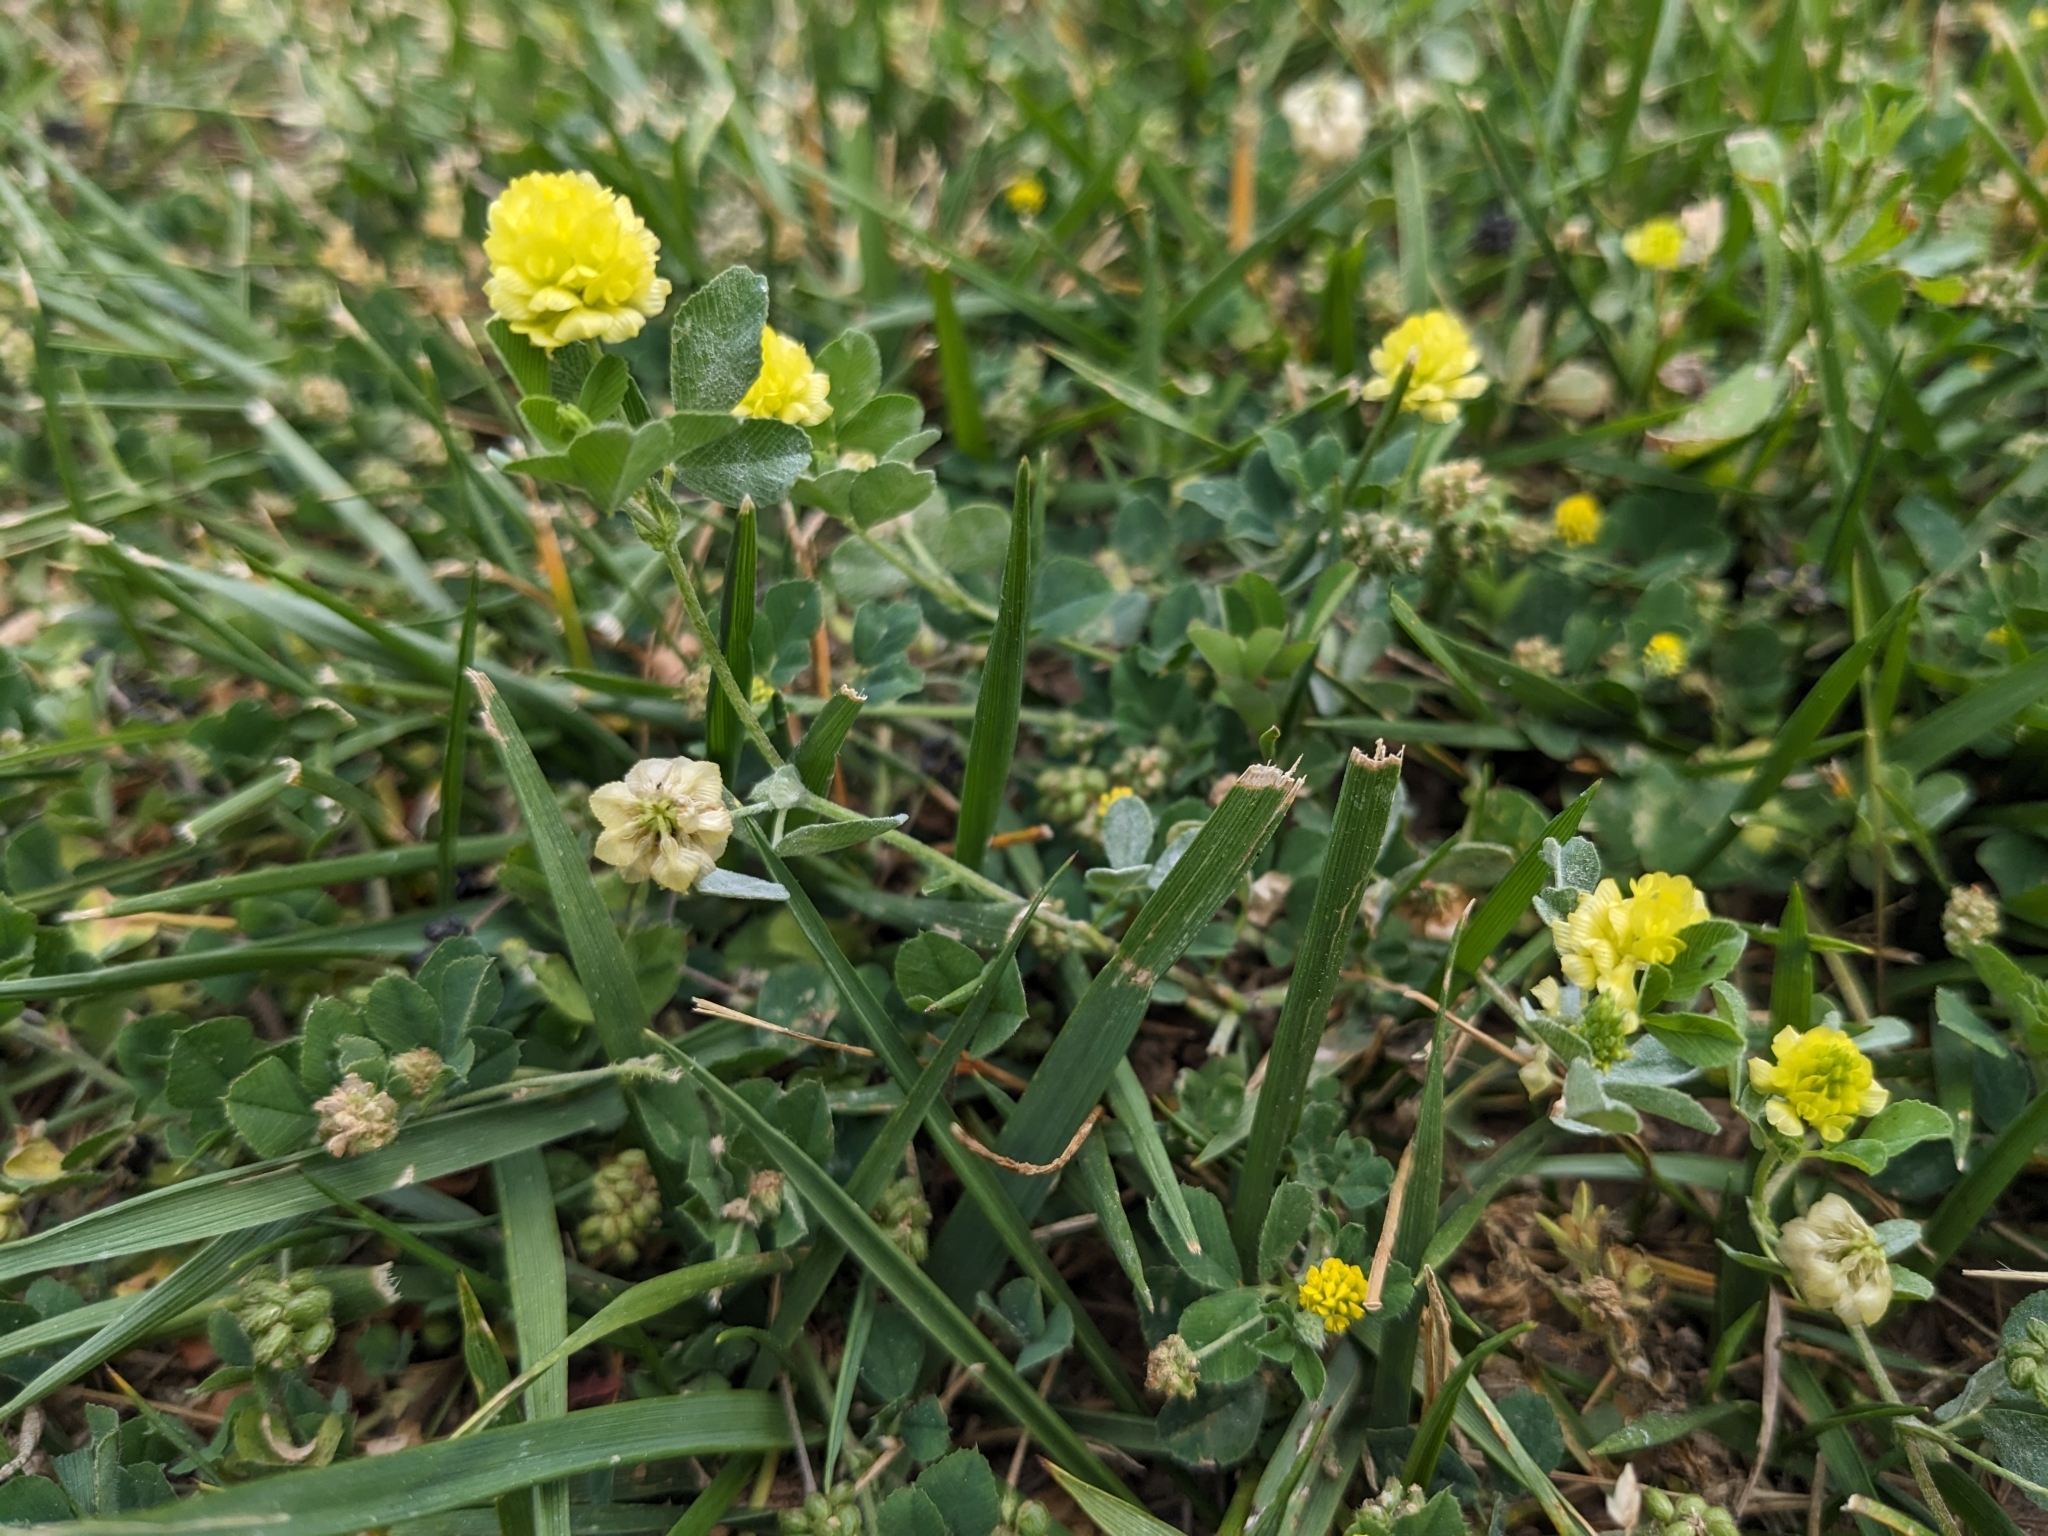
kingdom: Plantae
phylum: Tracheophyta
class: Magnoliopsida
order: Fabales
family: Fabaceae
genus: Trifolium
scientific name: Trifolium campestre
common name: Field clover
